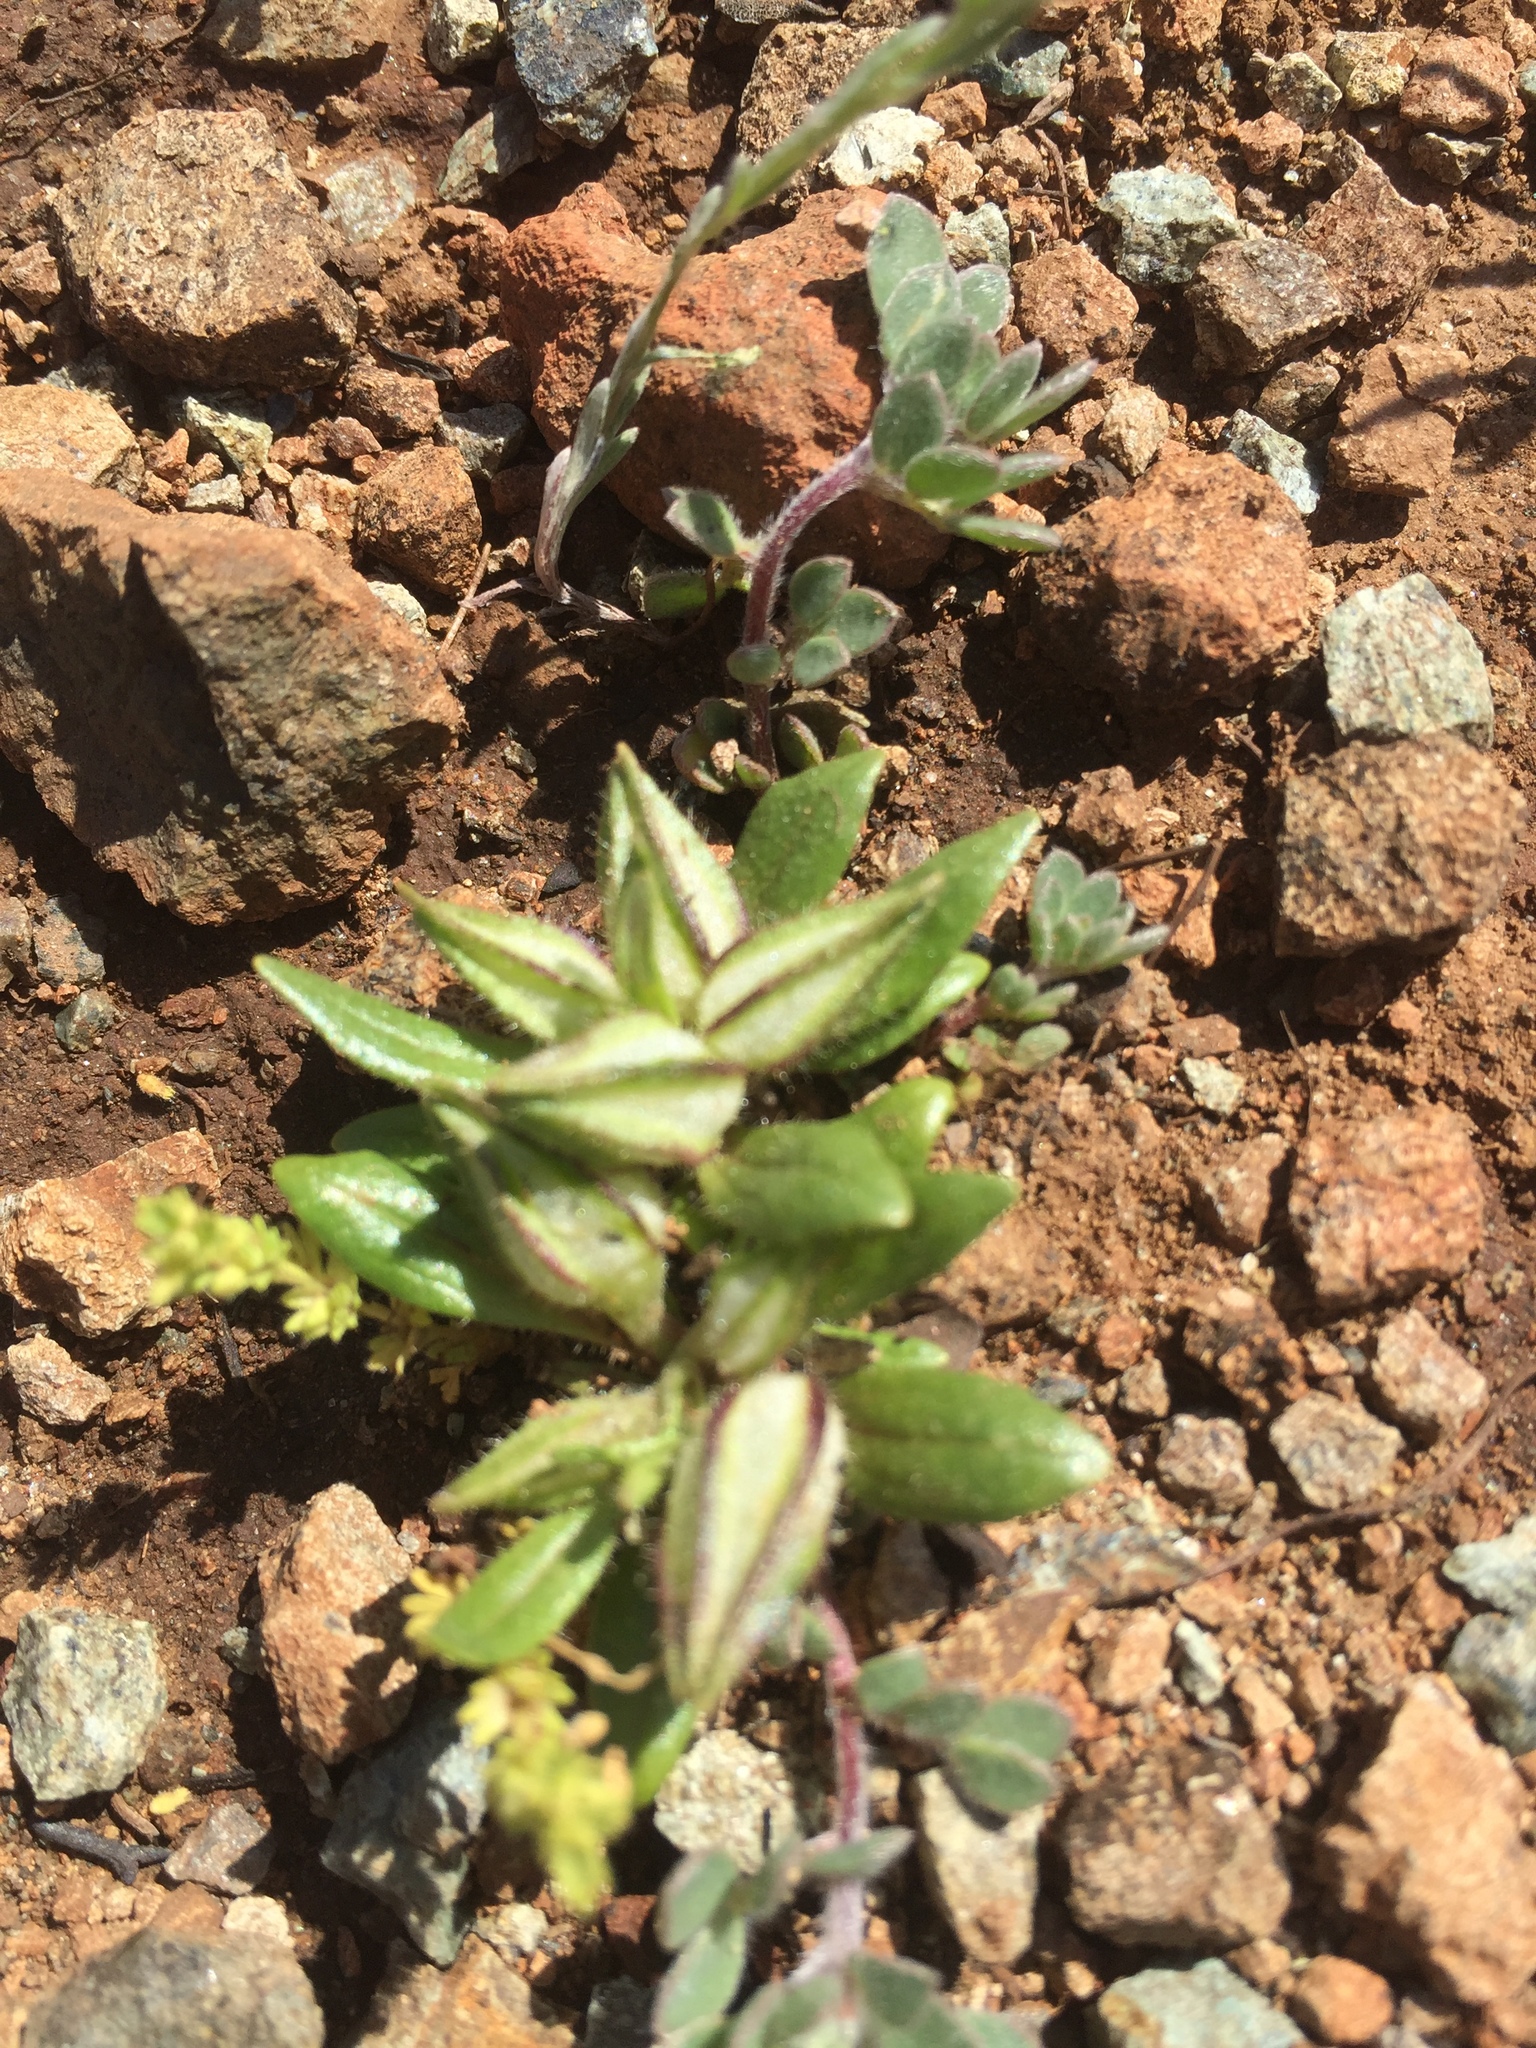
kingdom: Plantae
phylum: Tracheophyta
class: Magnoliopsida
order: Lamiales
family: Phrymaceae
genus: Diplacus
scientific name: Diplacus douglasii
